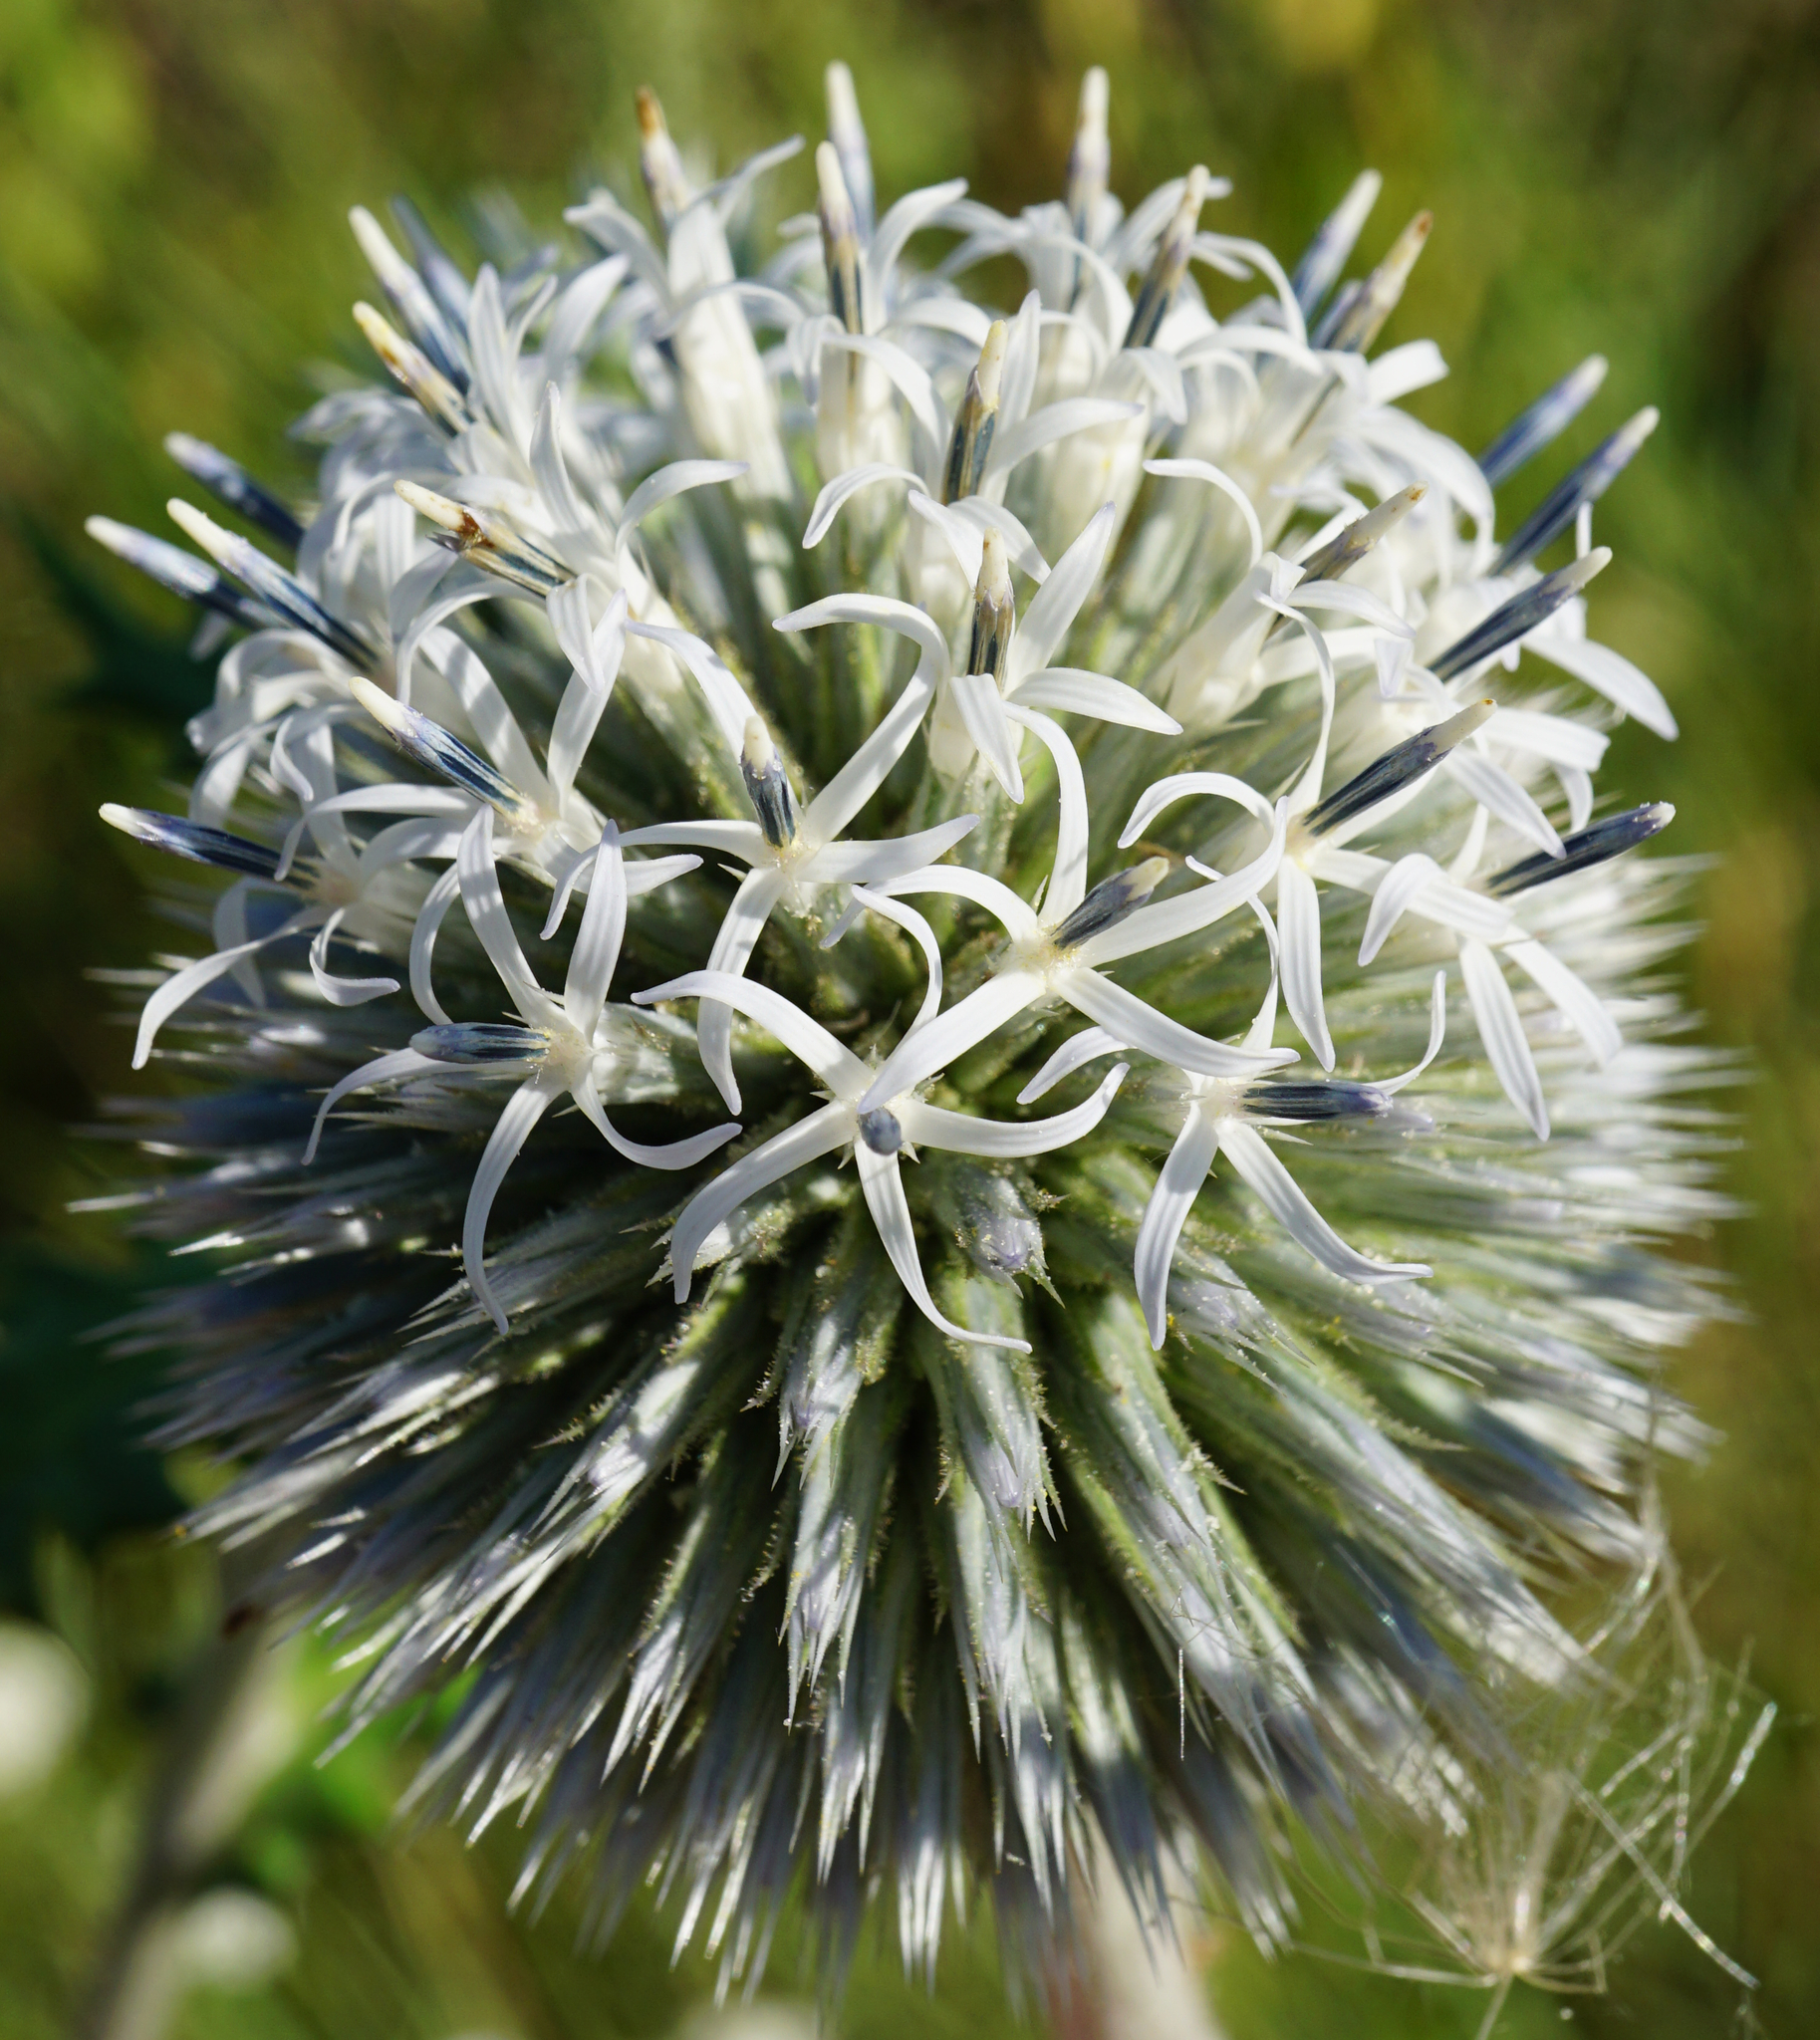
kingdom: Plantae
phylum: Tracheophyta
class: Magnoliopsida
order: Asterales
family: Asteraceae
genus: Echinops
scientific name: Echinops sphaerocephalus
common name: Glandular globe-thistle
